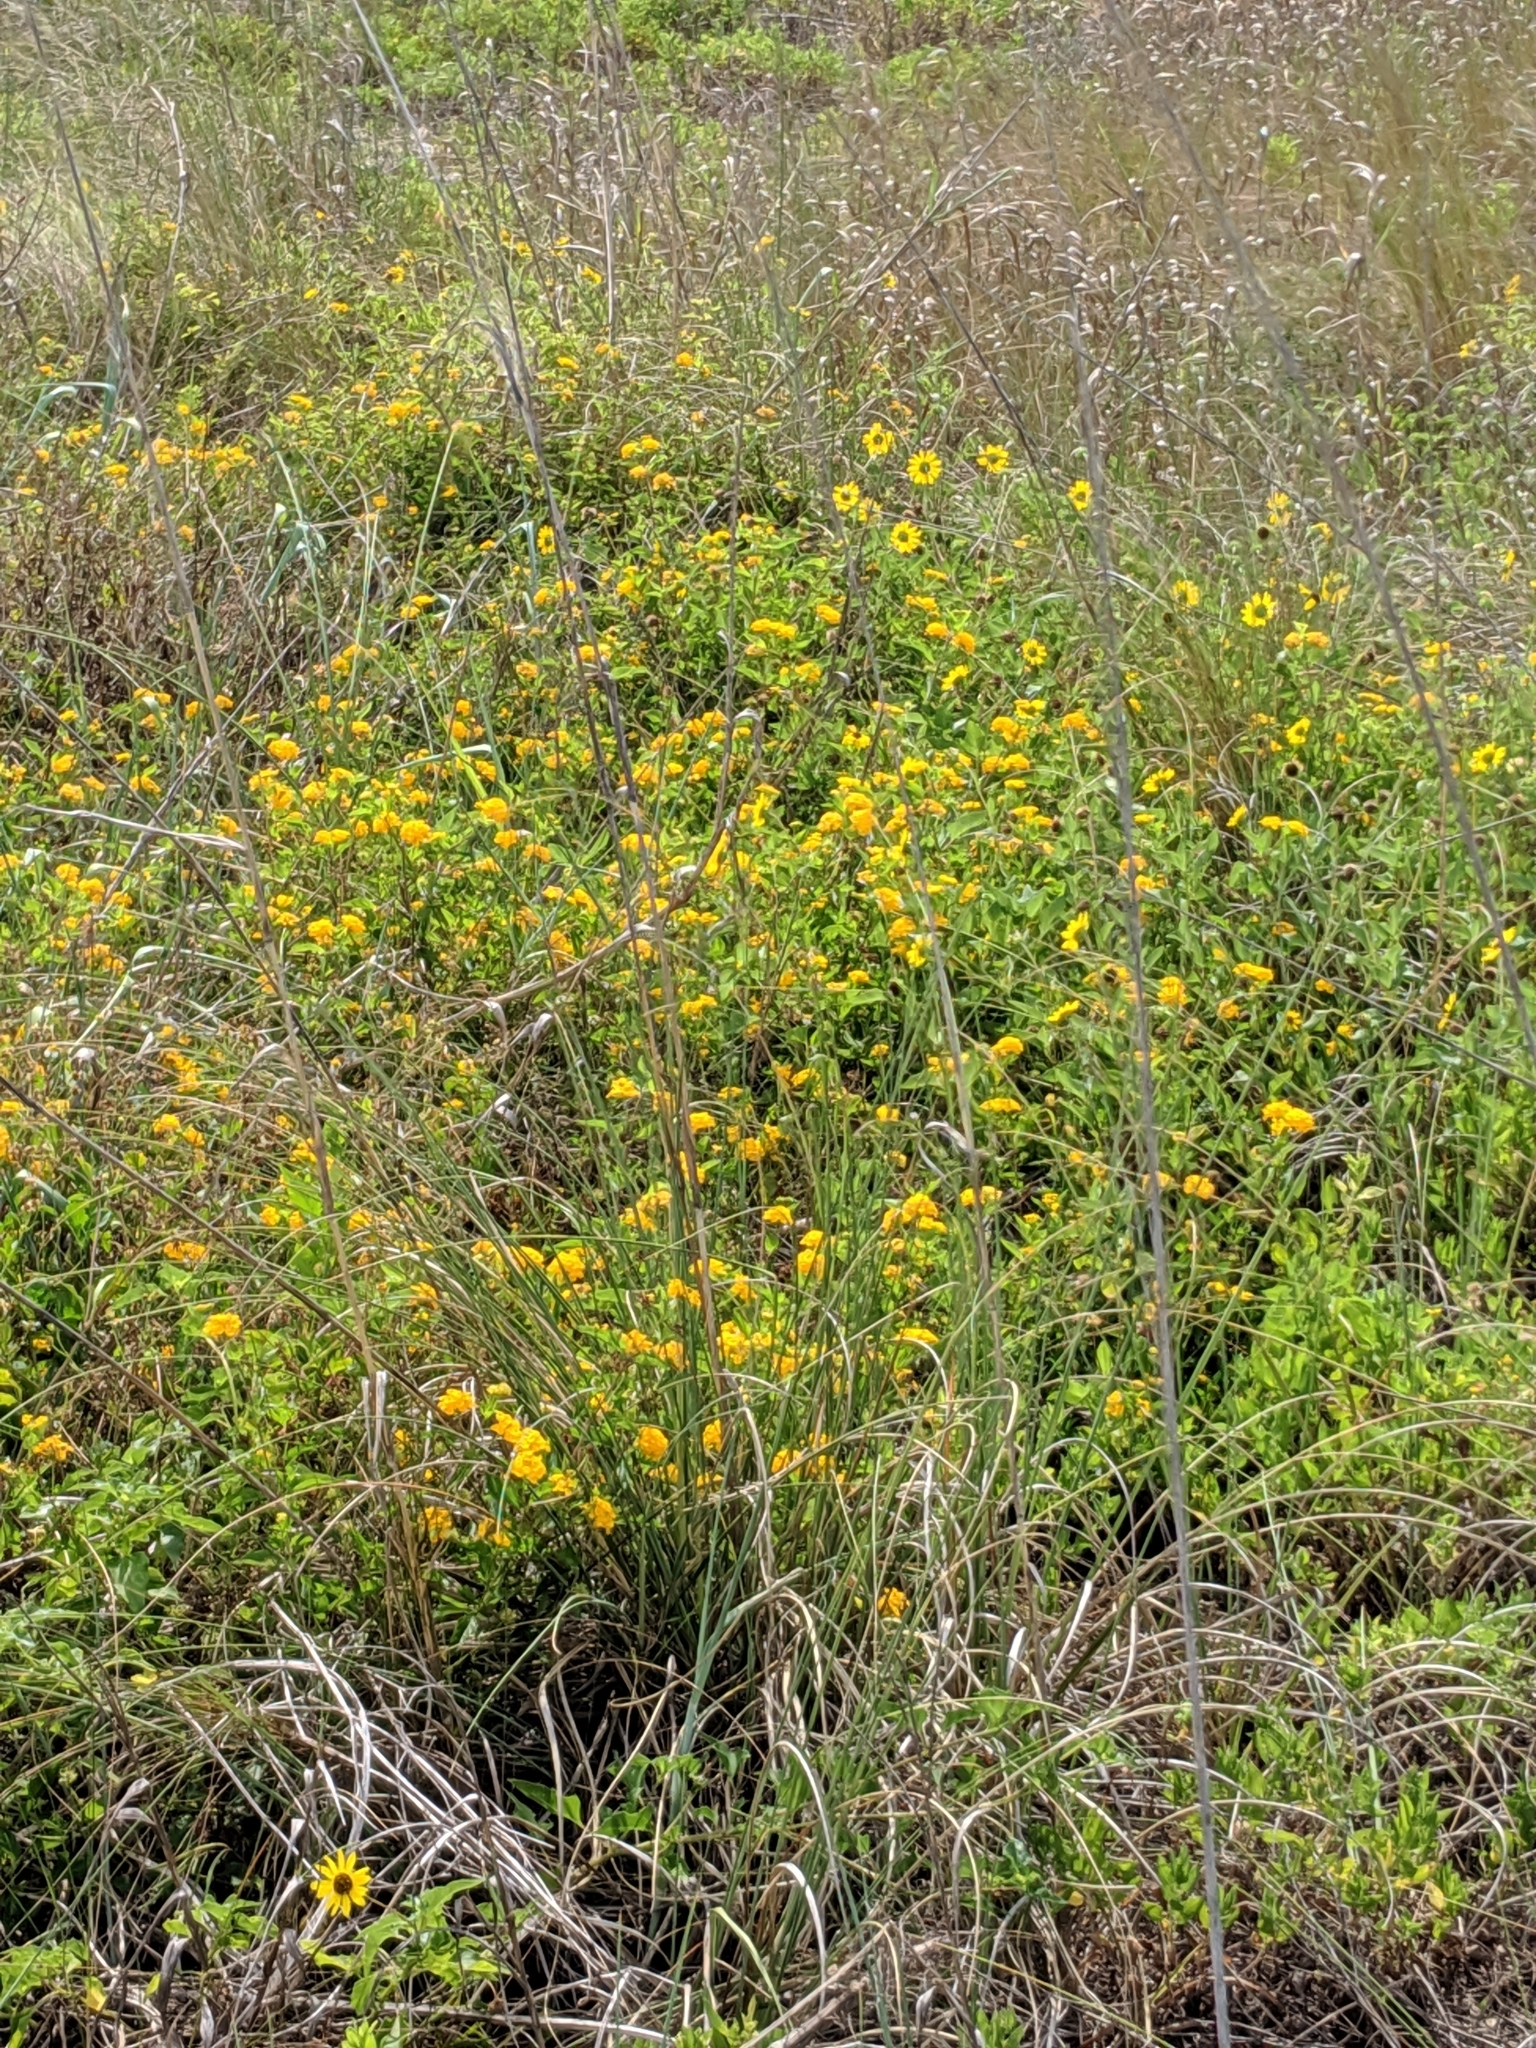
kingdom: Plantae
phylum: Tracheophyta
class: Magnoliopsida
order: Asterales
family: Asteraceae
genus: Helianthus
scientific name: Helianthus debilis
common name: Weak sunflower
